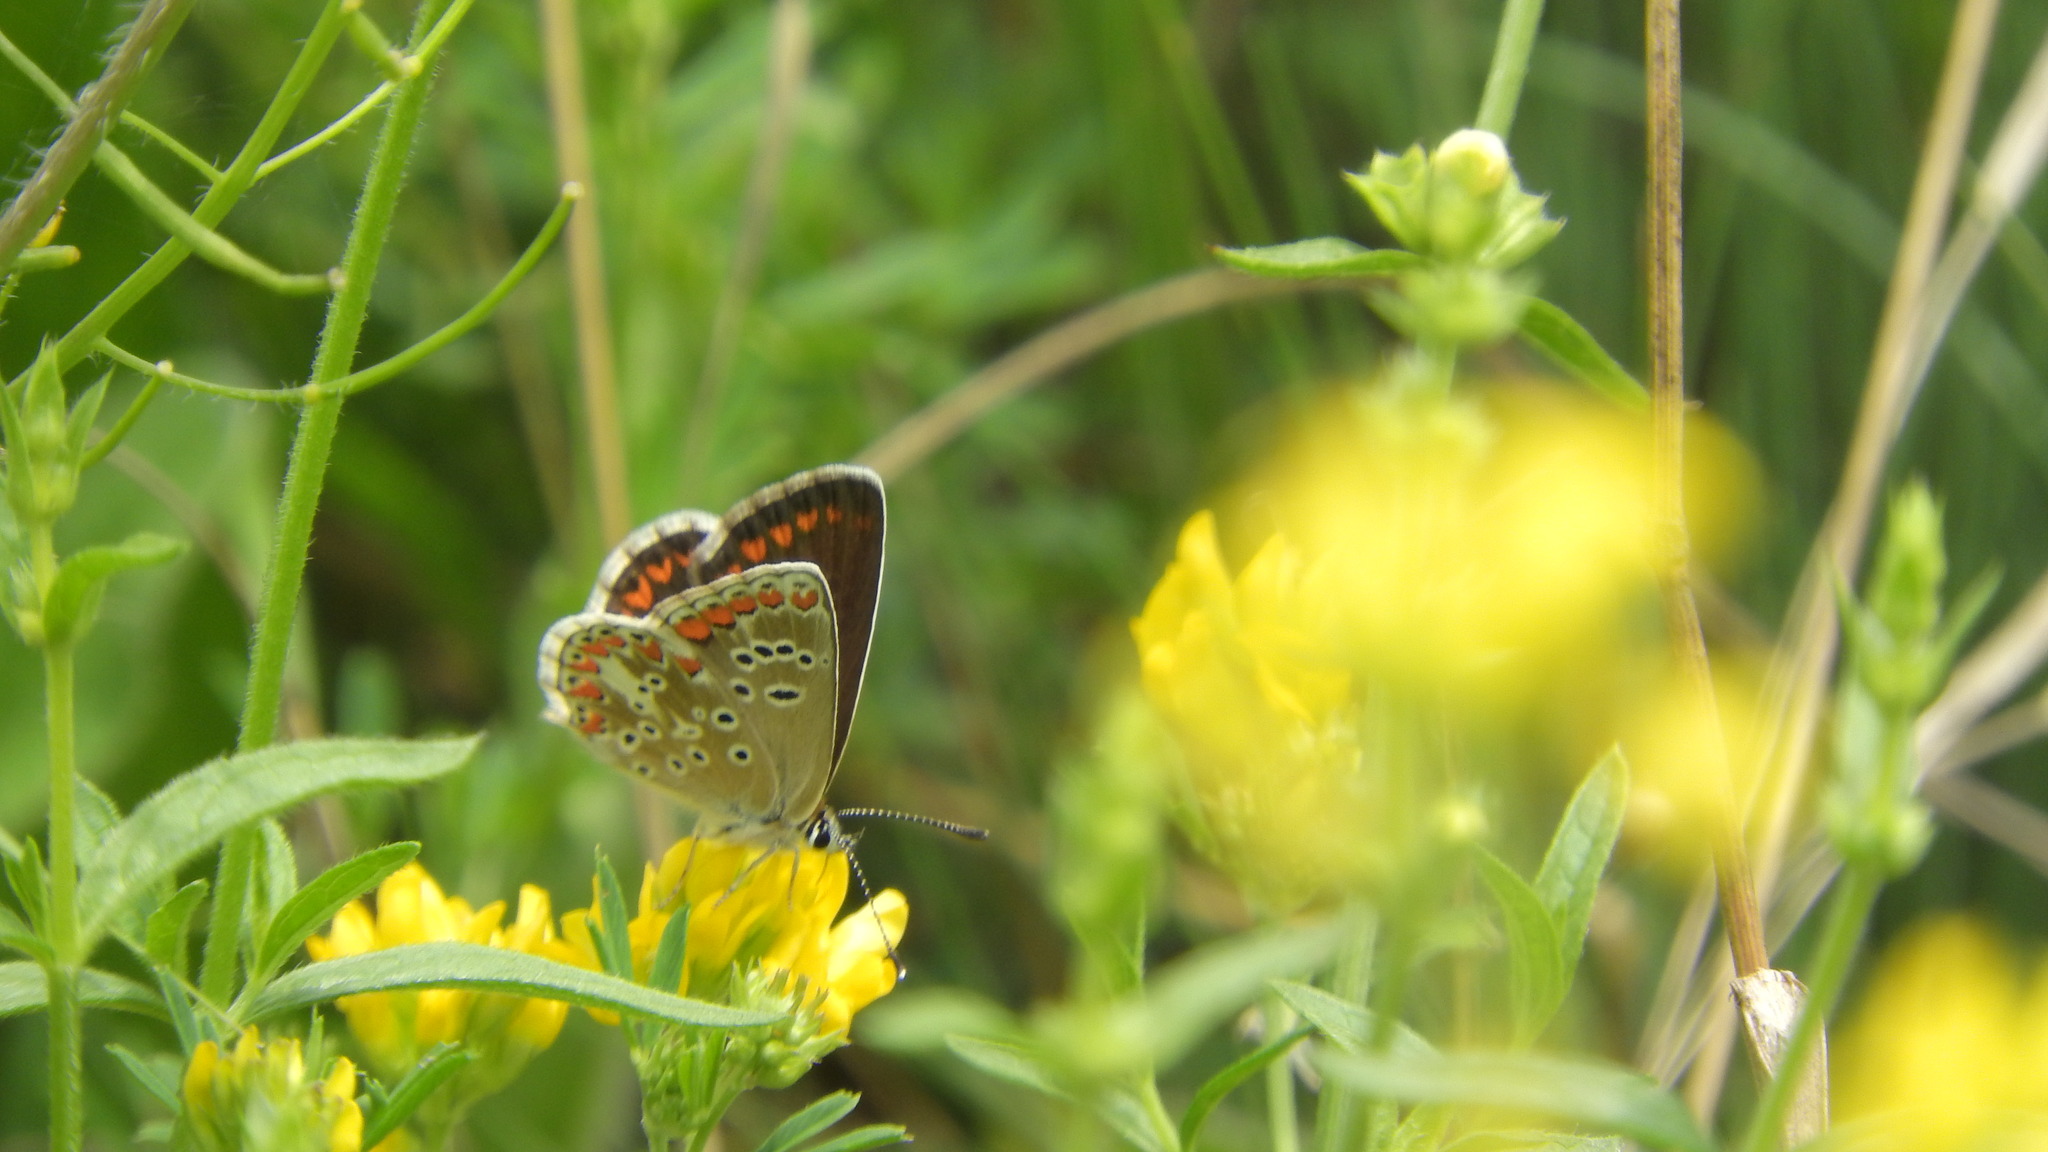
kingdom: Animalia
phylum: Arthropoda
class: Insecta
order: Lepidoptera
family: Lycaenidae
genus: Aricia
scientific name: Aricia agestis
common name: Brown argus
